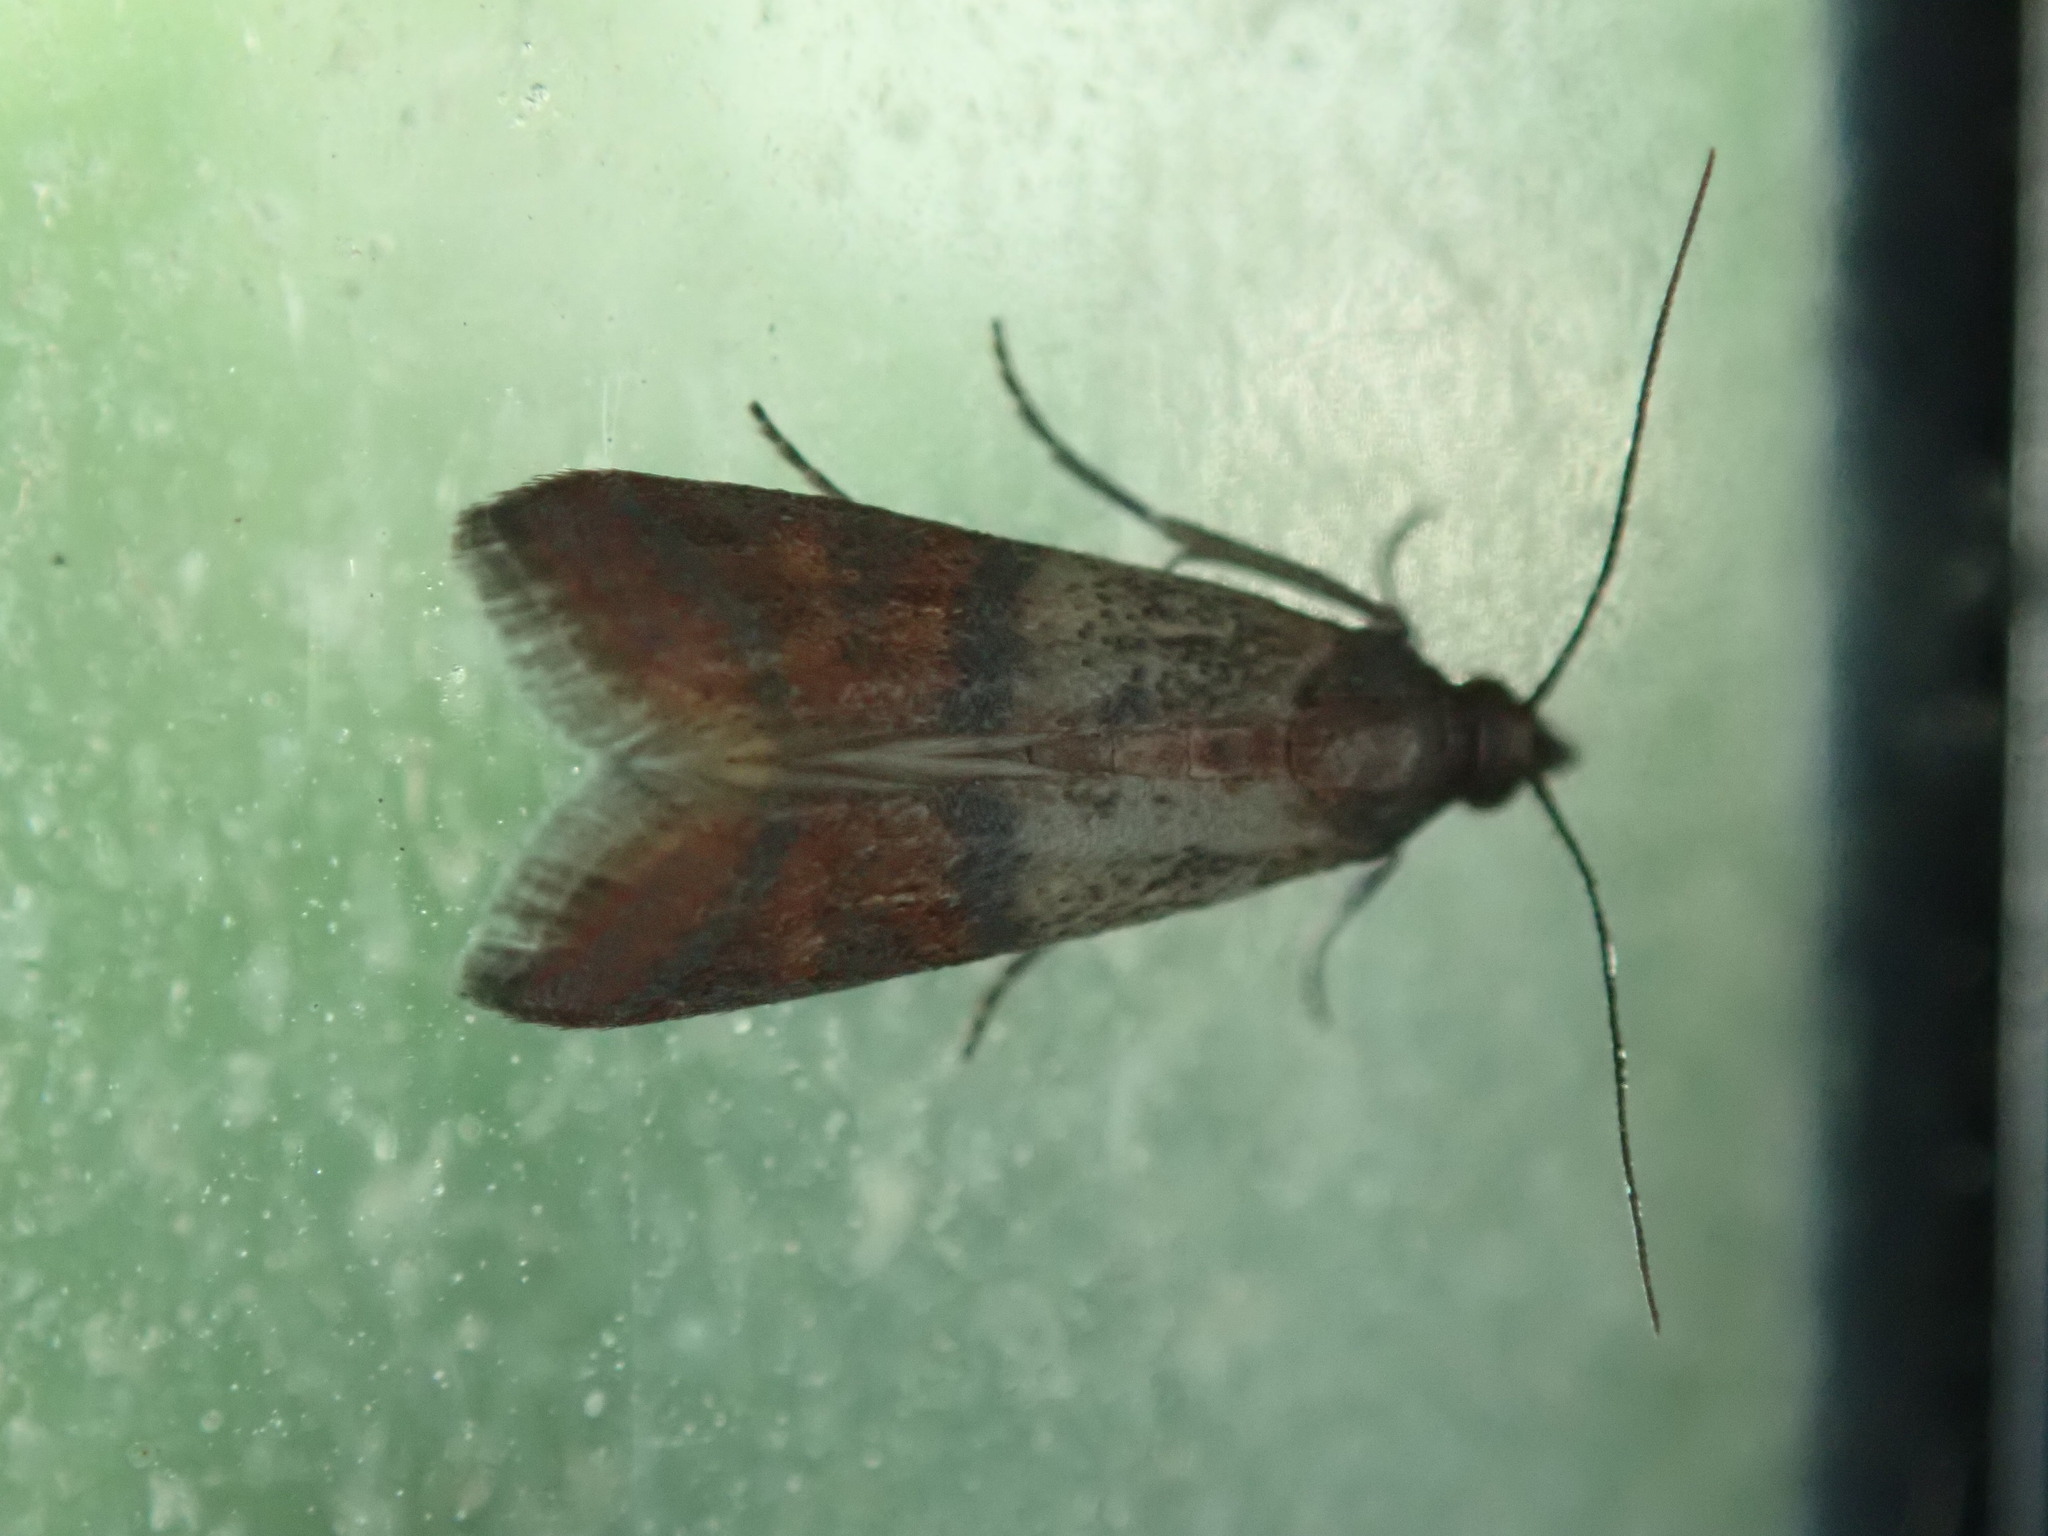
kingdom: Animalia
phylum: Arthropoda
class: Insecta
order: Lepidoptera
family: Pyralidae
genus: Plodia
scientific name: Plodia interpunctella
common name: Indian meal moth
